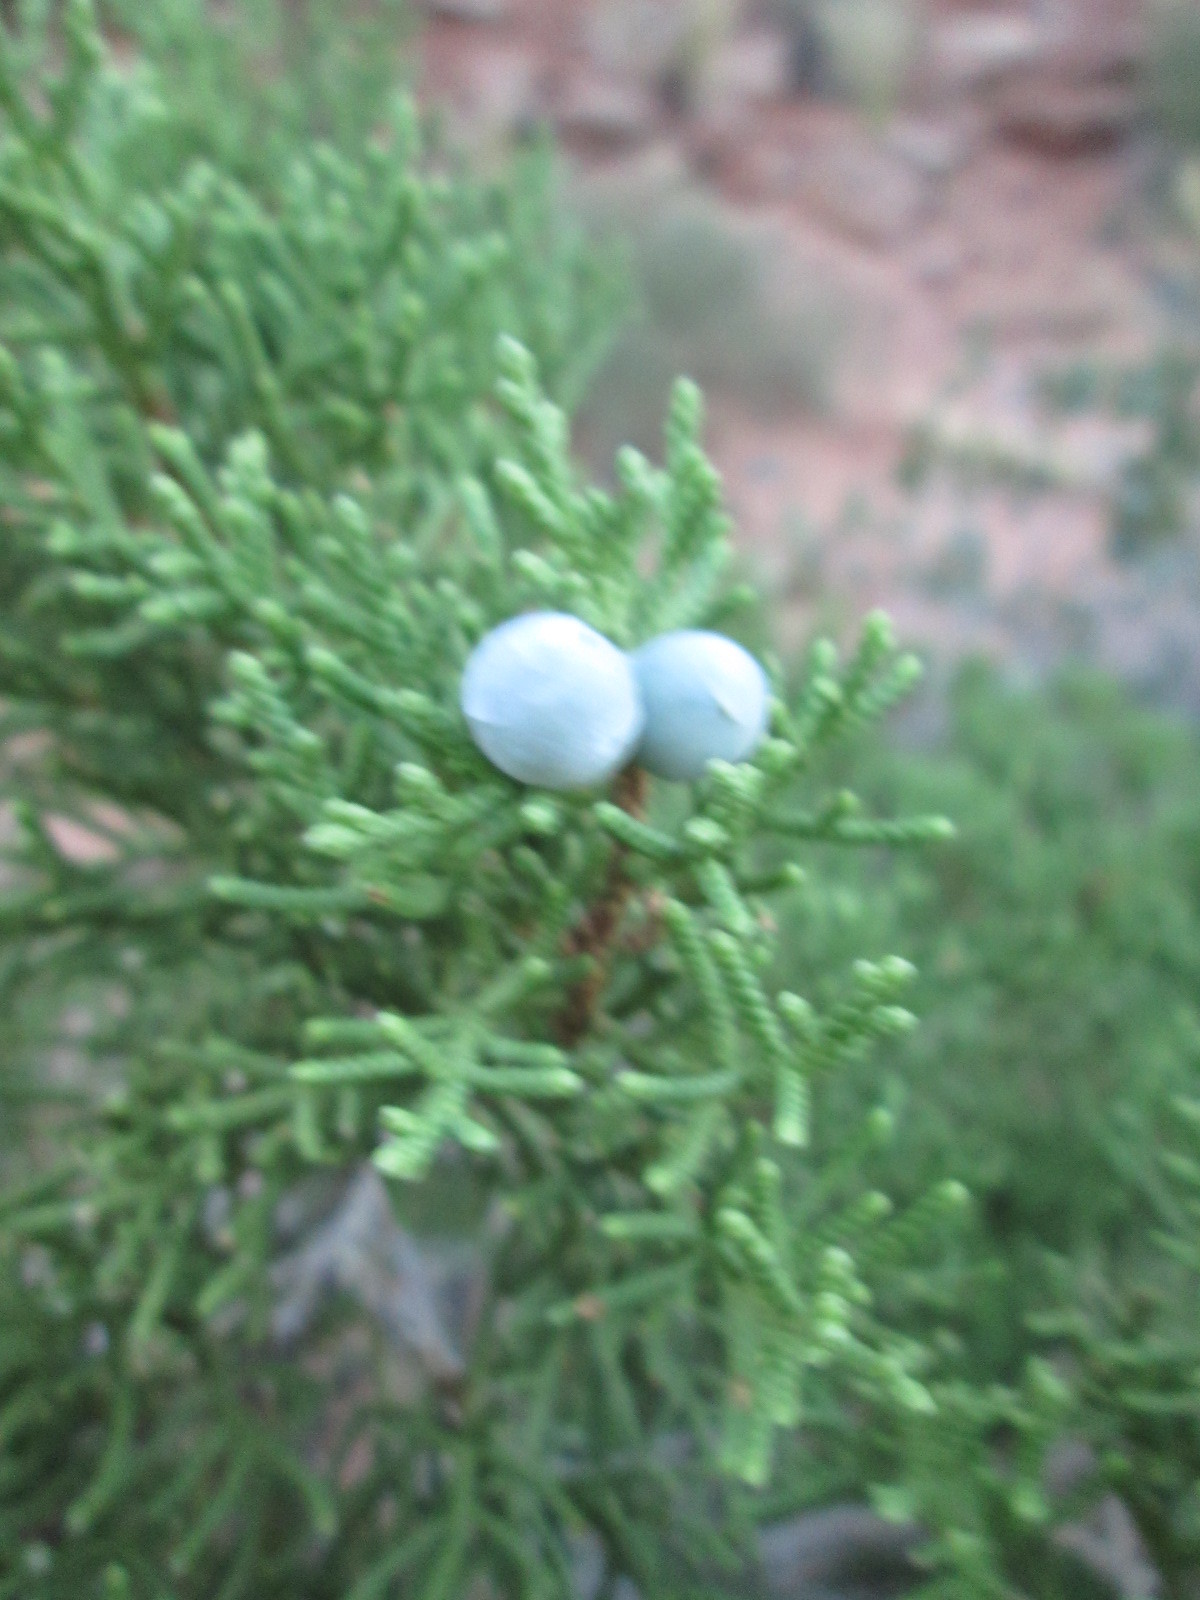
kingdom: Plantae
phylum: Tracheophyta
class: Pinopsida
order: Pinales
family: Cupressaceae
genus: Juniperus
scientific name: Juniperus osteosperma
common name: Utah juniper
